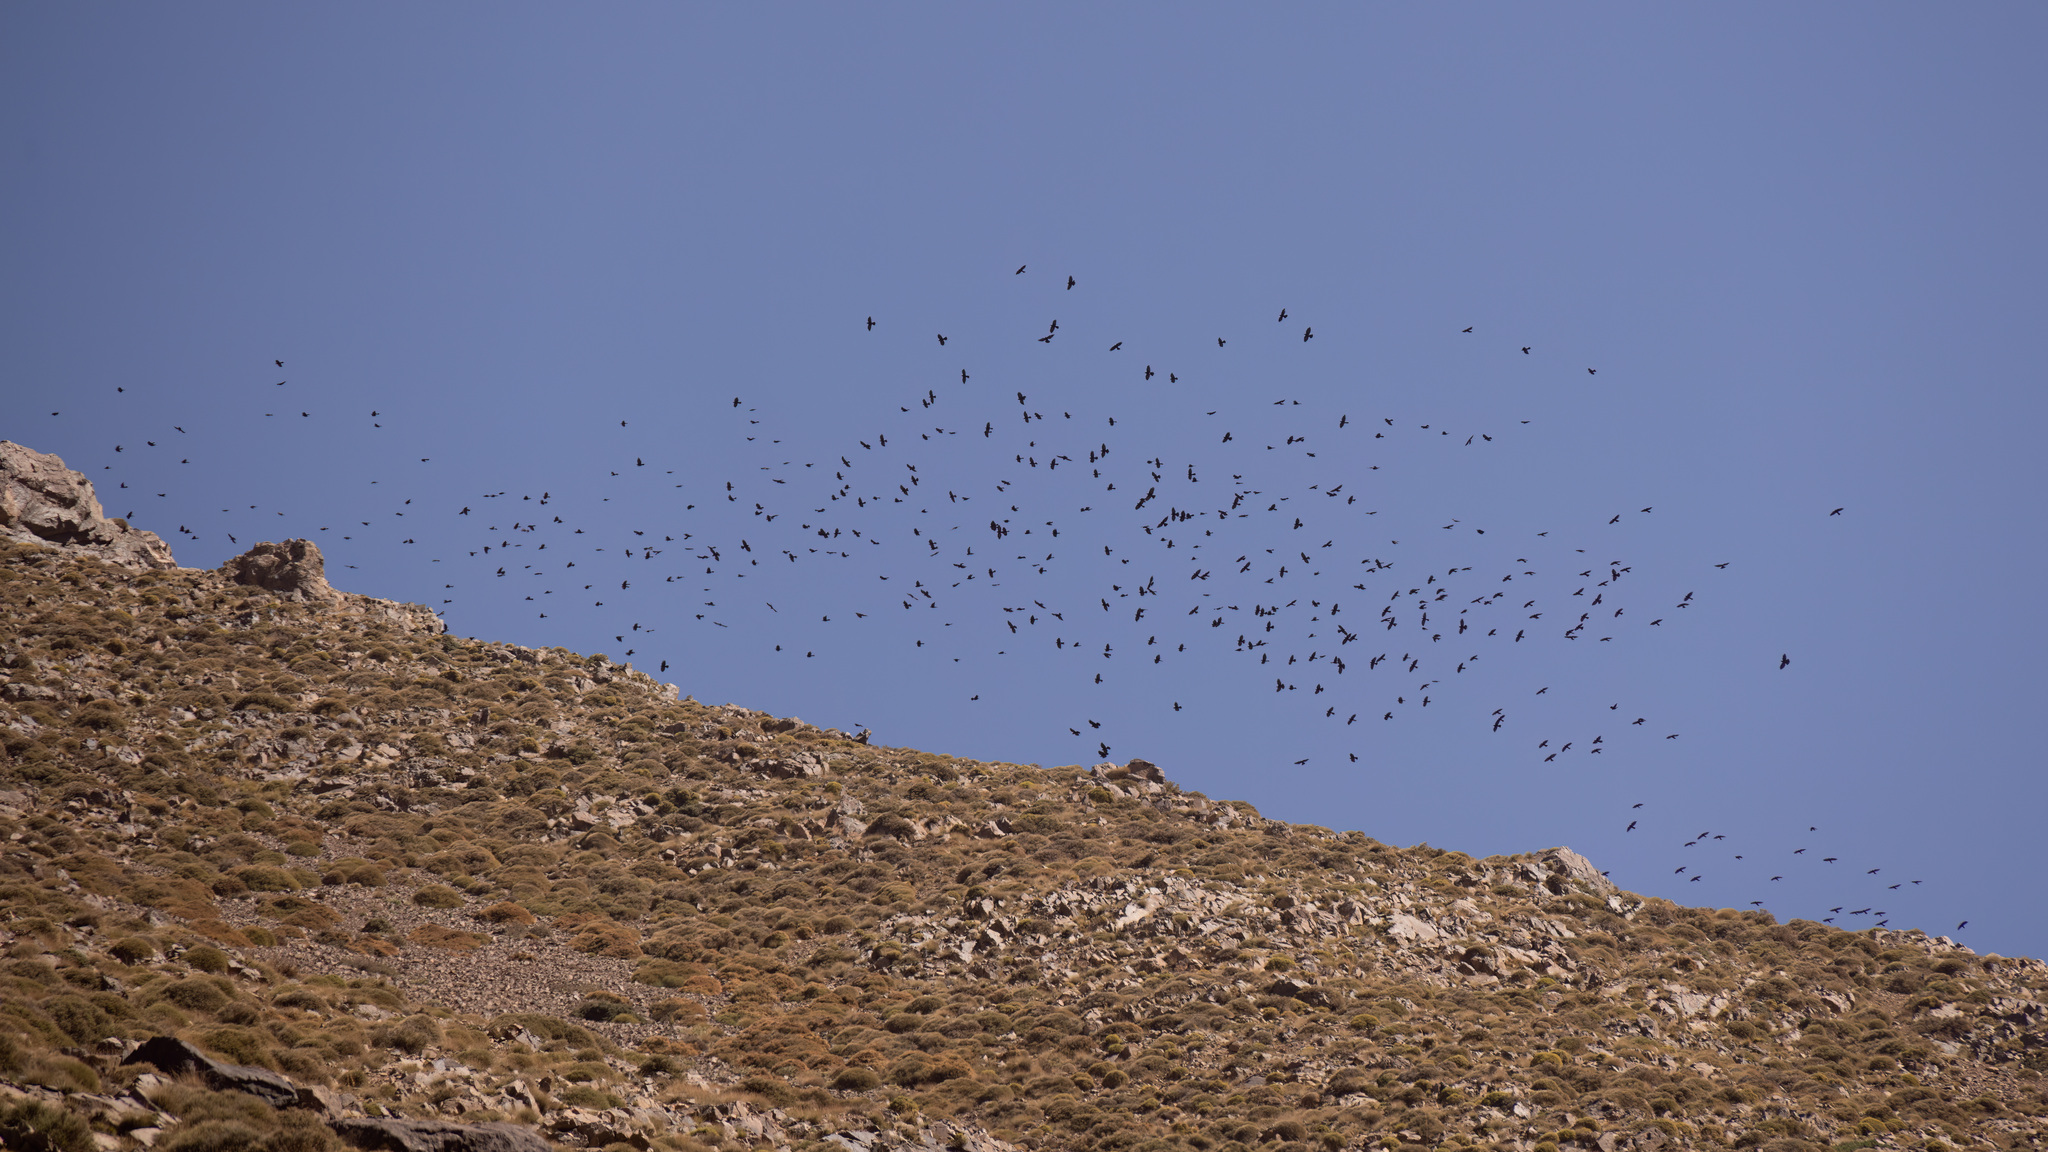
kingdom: Animalia
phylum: Chordata
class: Aves
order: Passeriformes
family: Corvidae
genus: Pyrrhocorax
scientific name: Pyrrhocorax pyrrhocorax
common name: Red-billed chough
